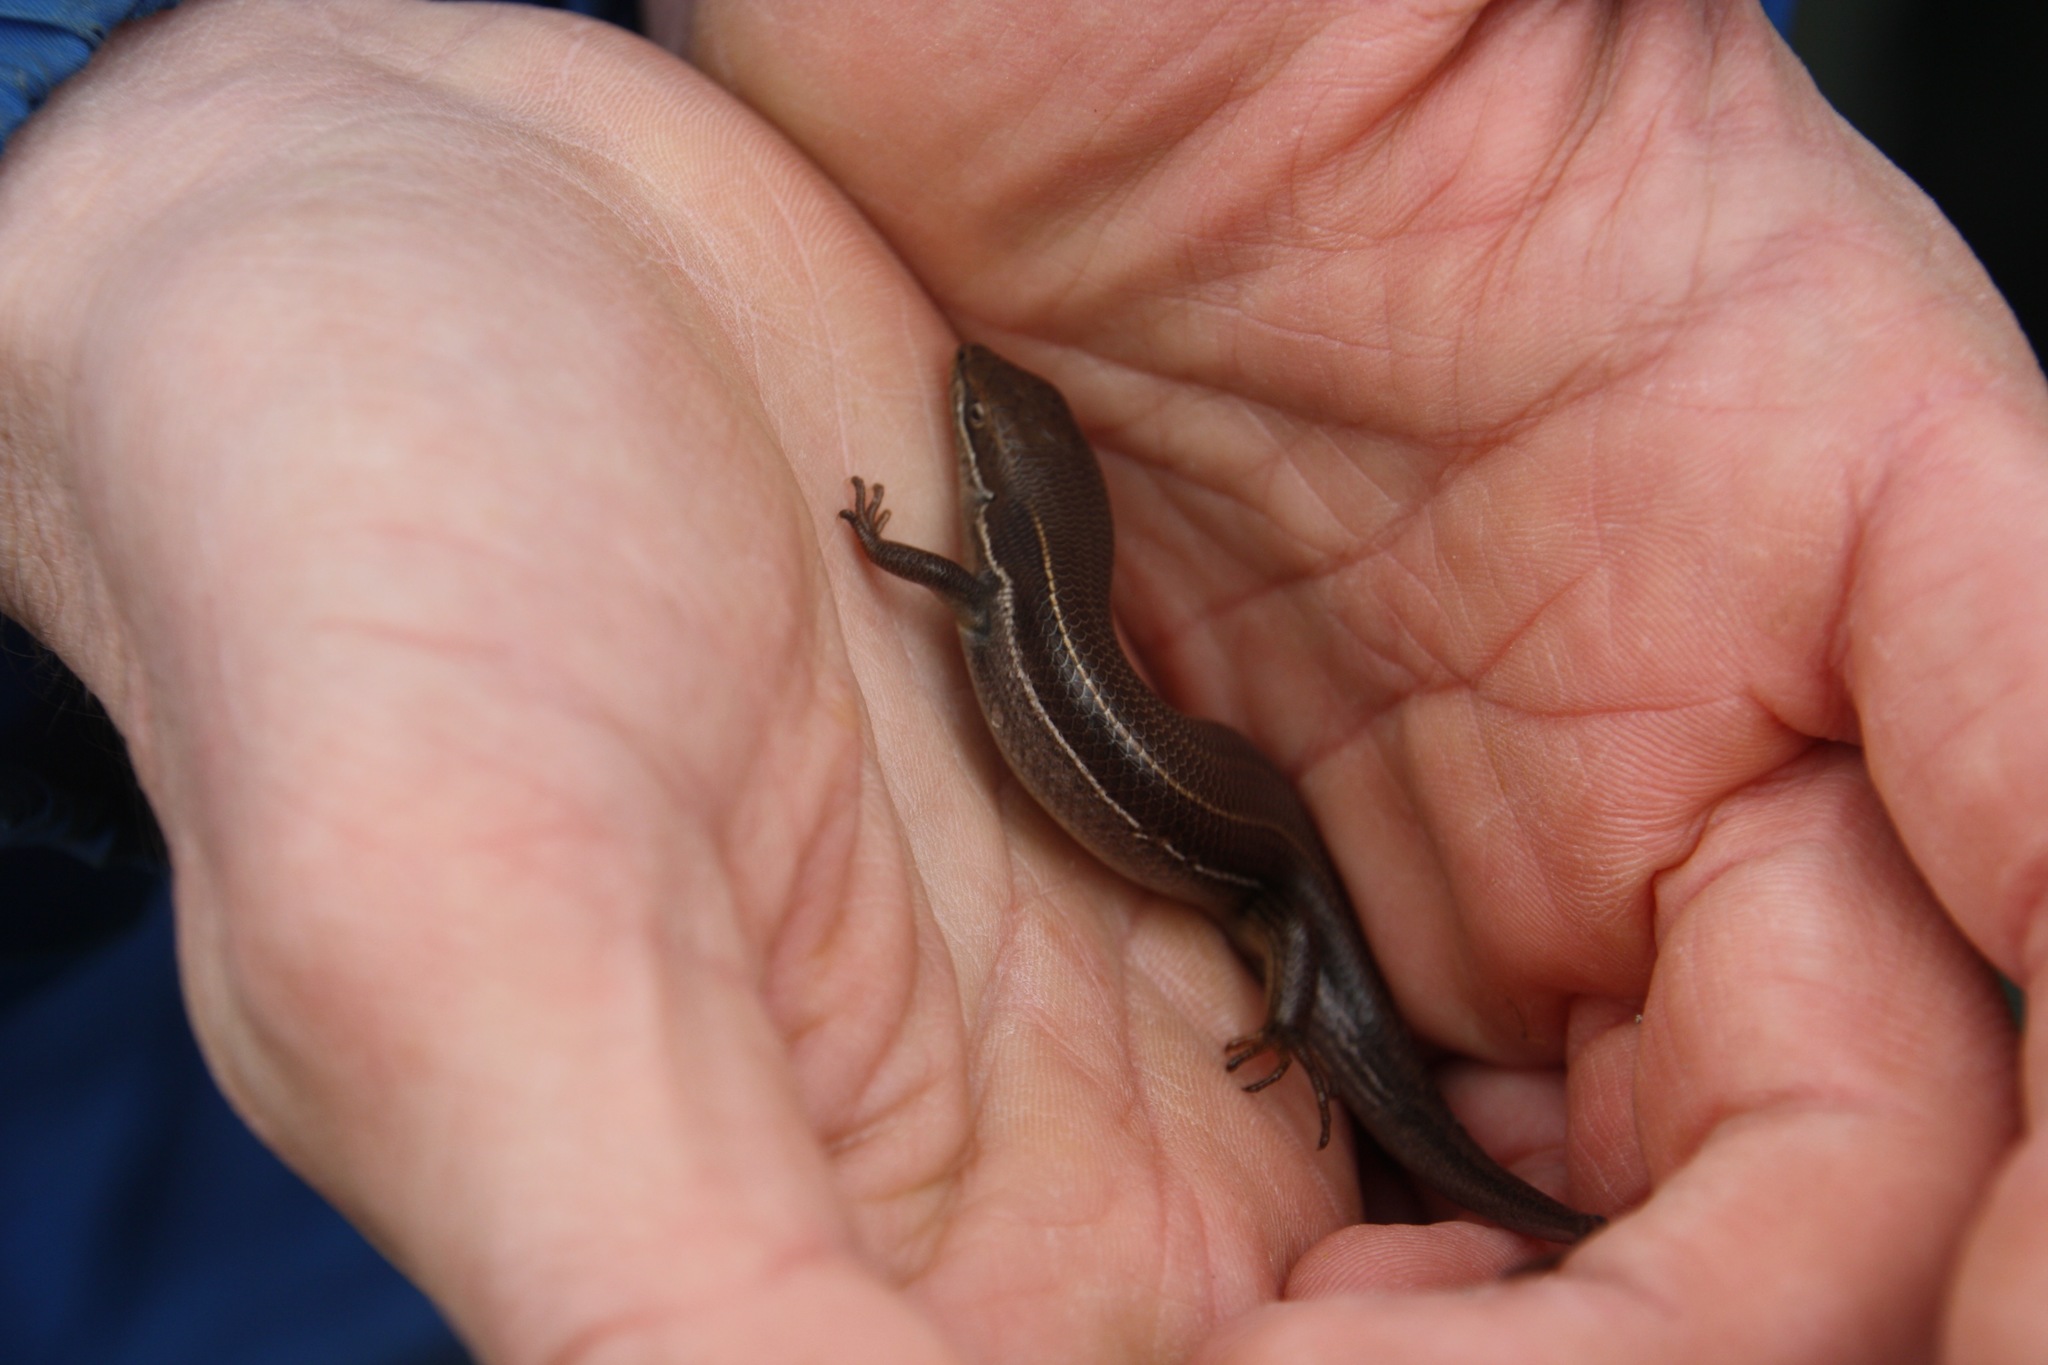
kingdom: Animalia
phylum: Chordata
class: Squamata
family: Scincidae
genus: Heremites
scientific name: Heremites vittatus
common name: Bridled mabuya
